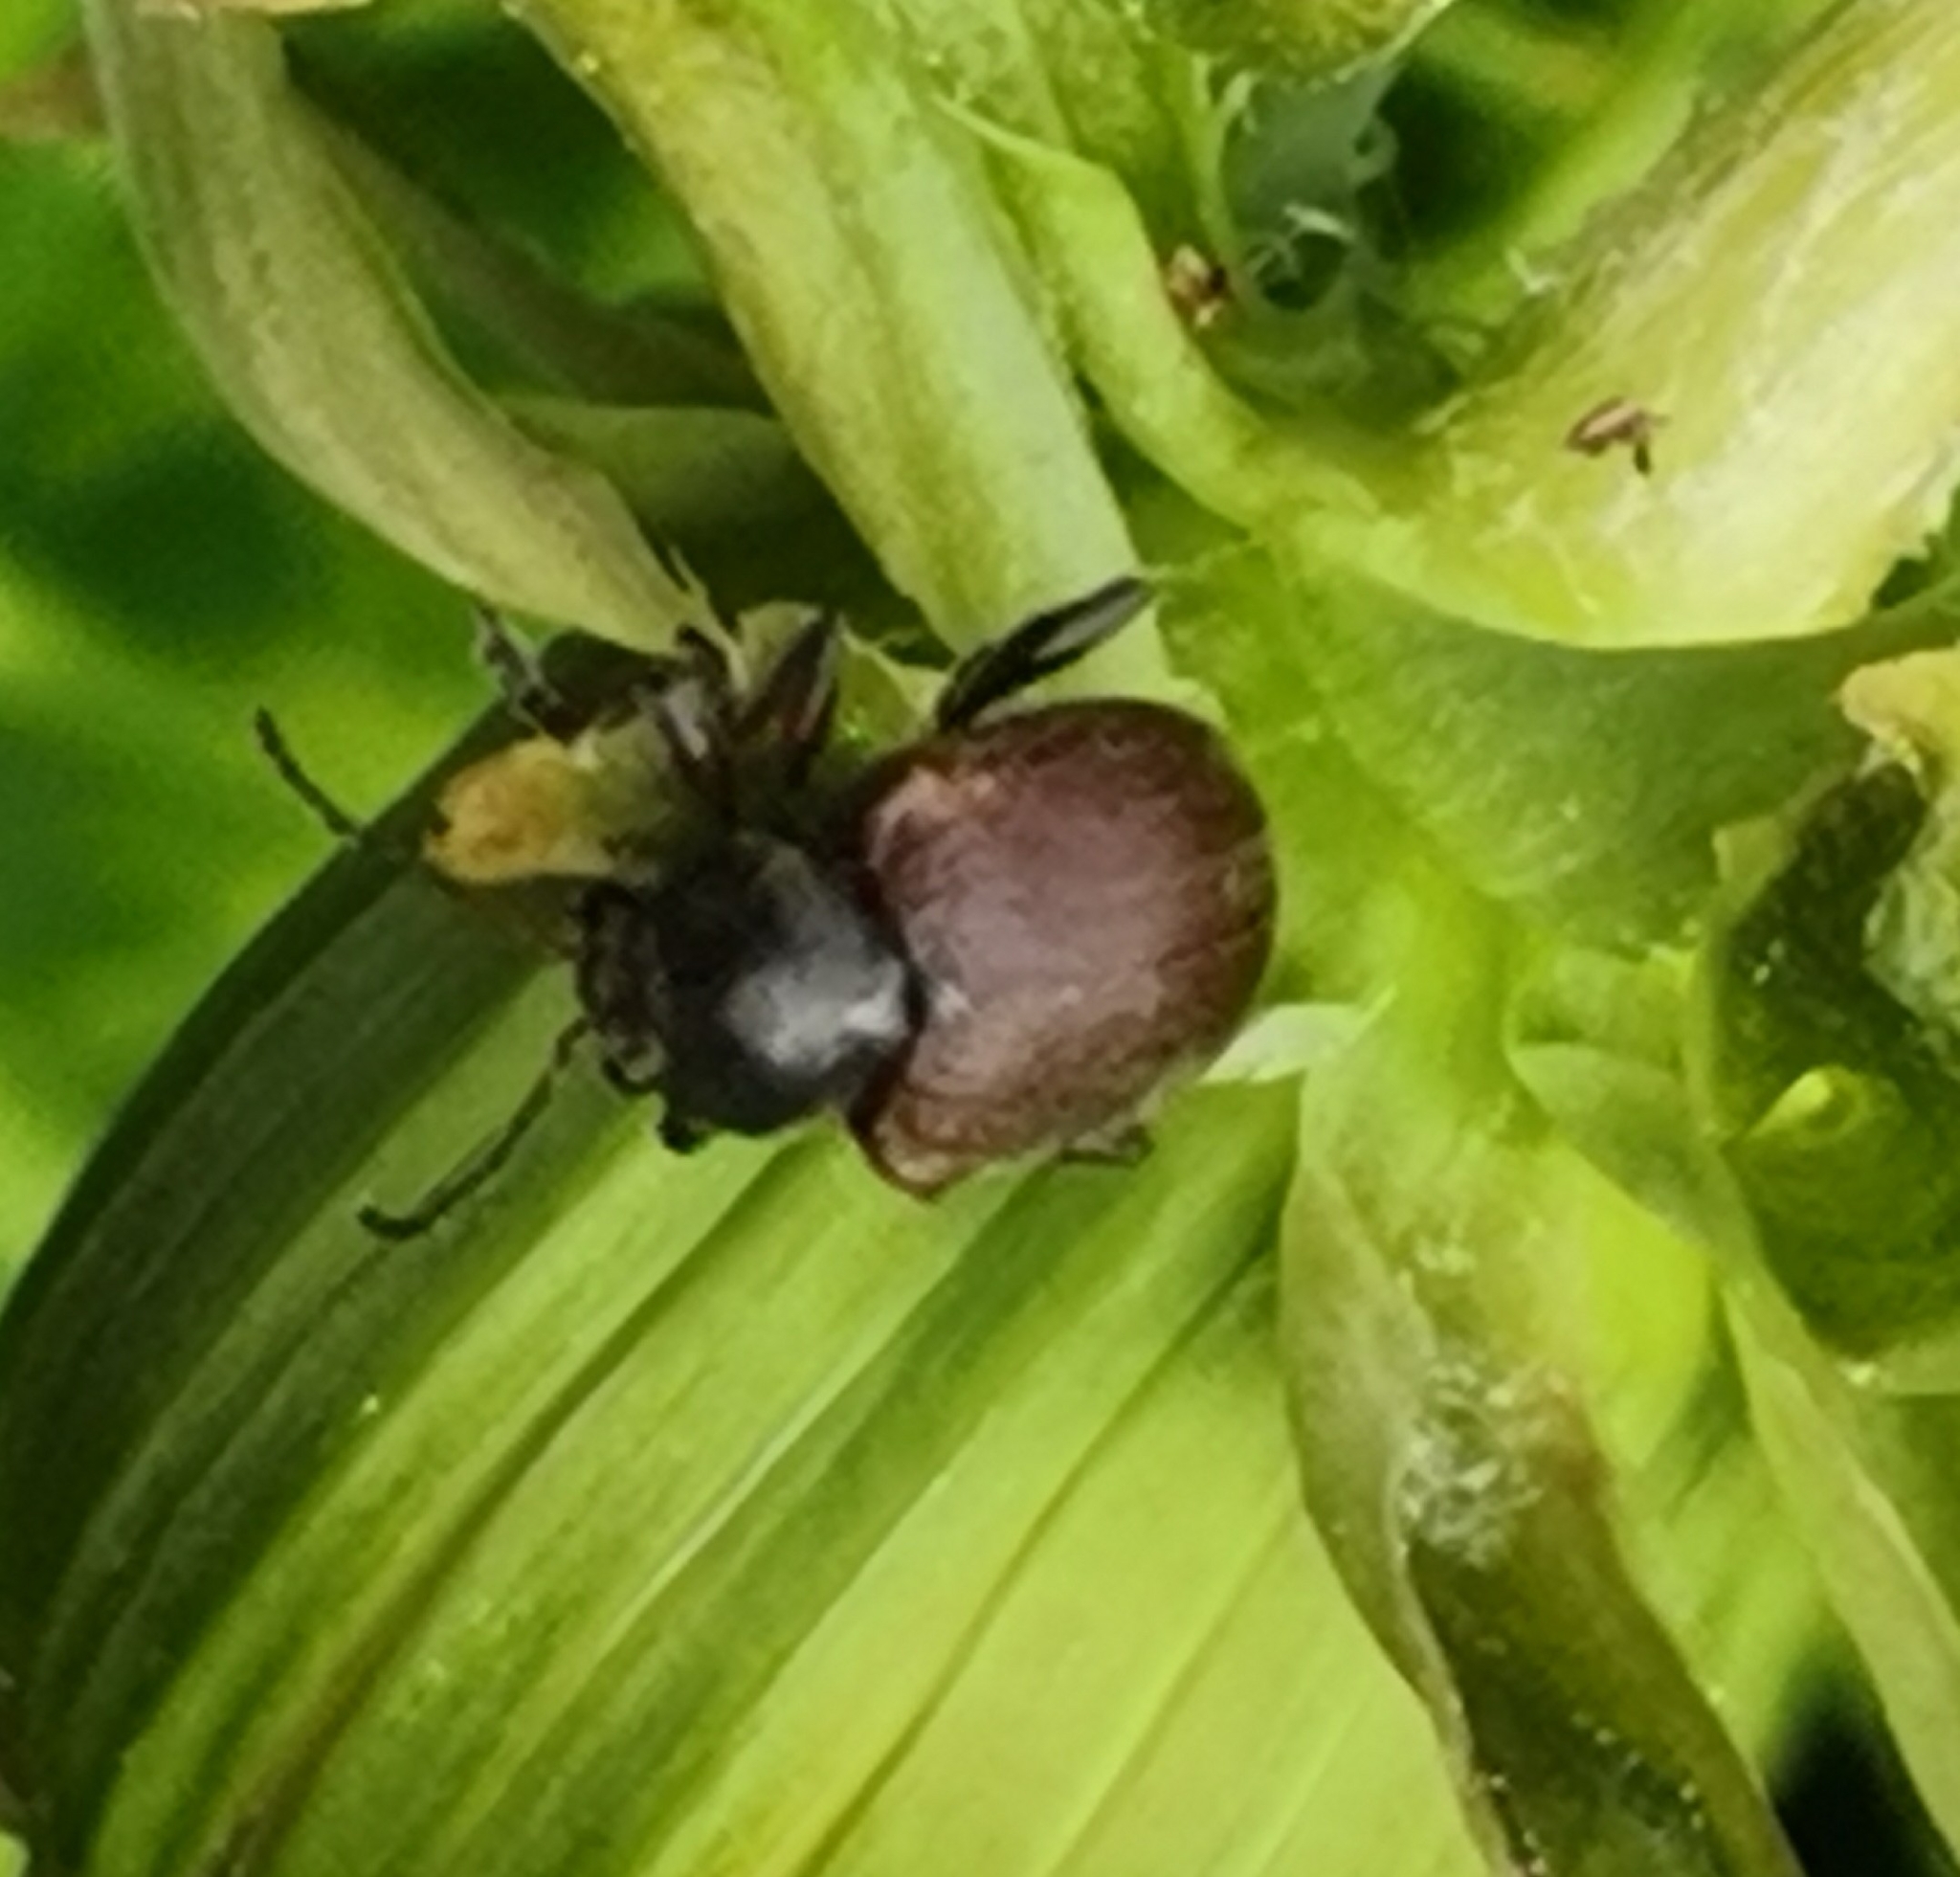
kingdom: Animalia
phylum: Arthropoda
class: Insecta
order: Coleoptera
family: Chrysomelidae
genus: Bromius
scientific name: Bromius obscurus
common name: Western grape rootworm
